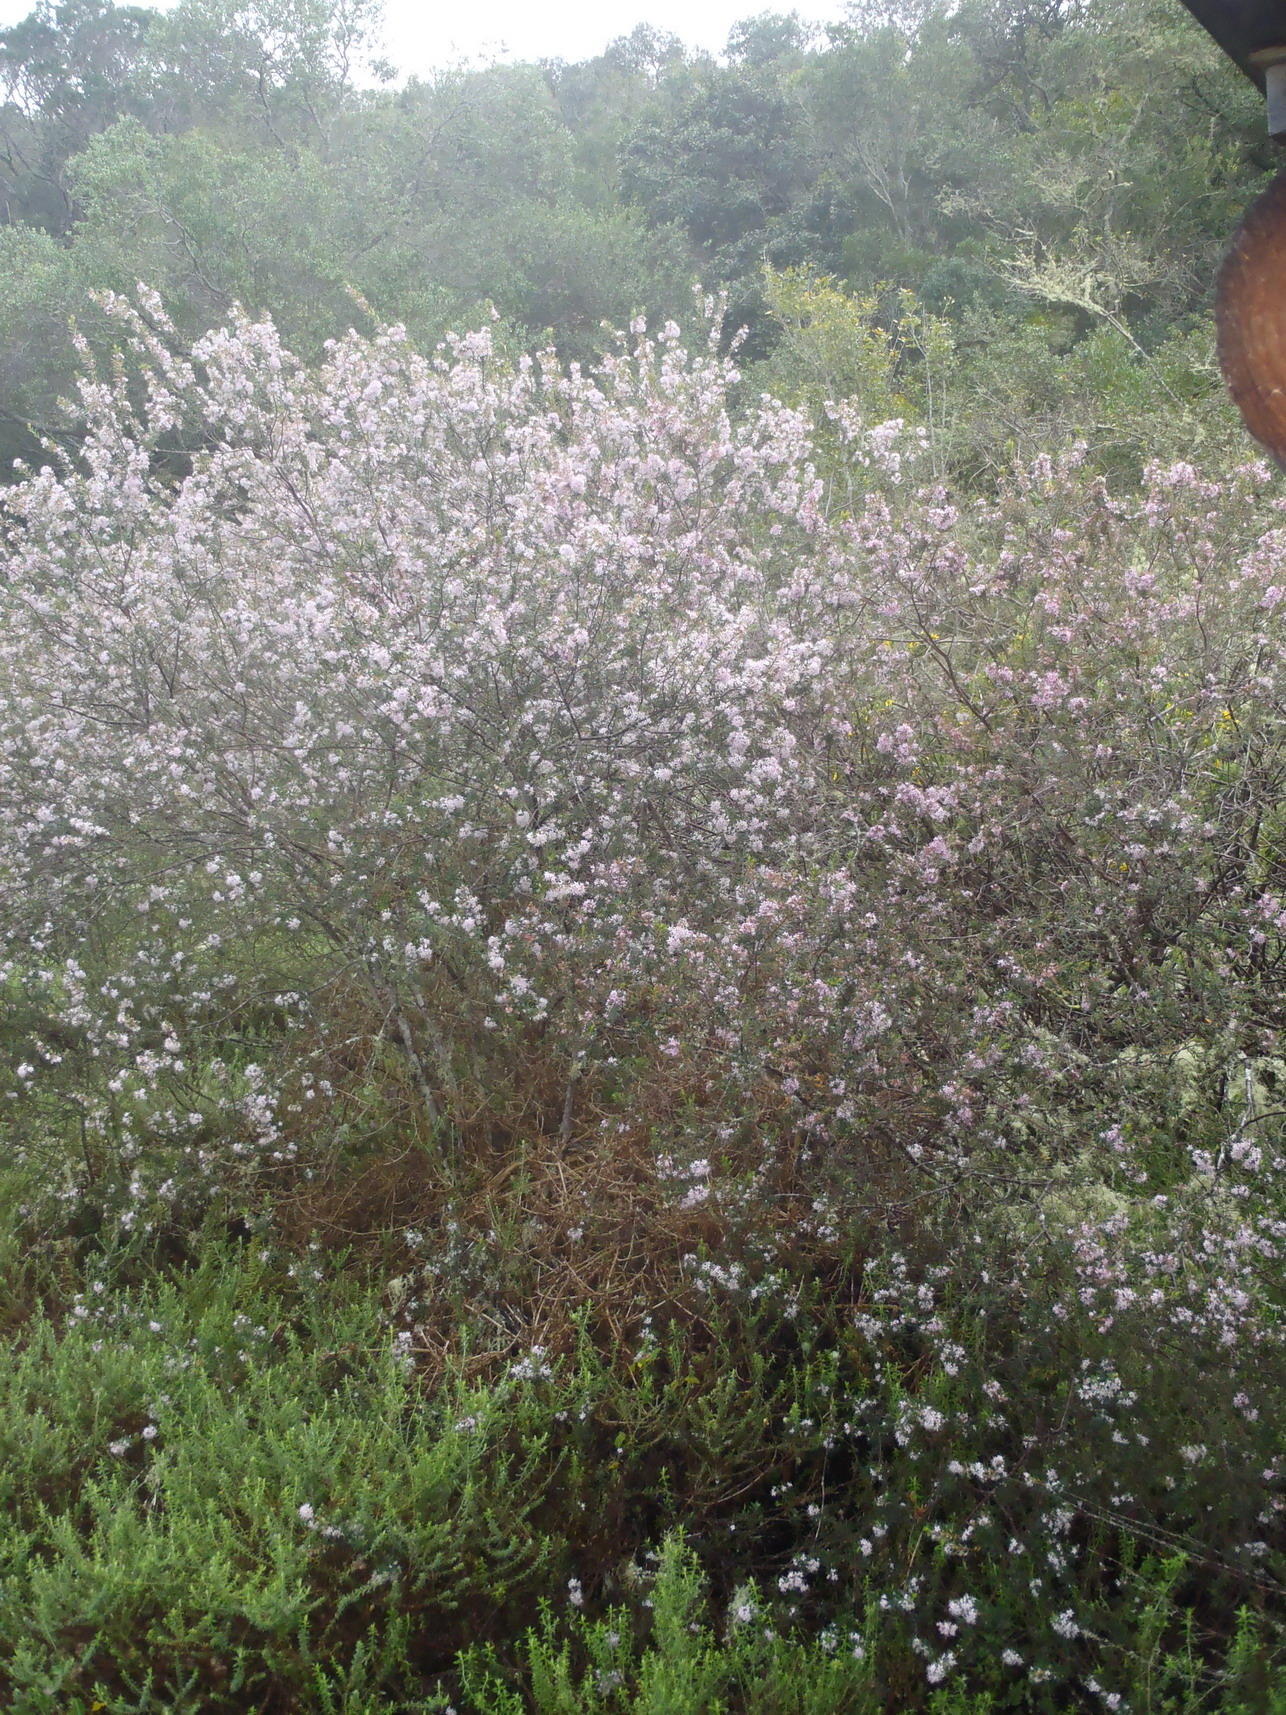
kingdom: Plantae
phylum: Tracheophyta
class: Magnoliopsida
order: Sapindales
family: Rutaceae
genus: Agathosma
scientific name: Agathosma ovata
